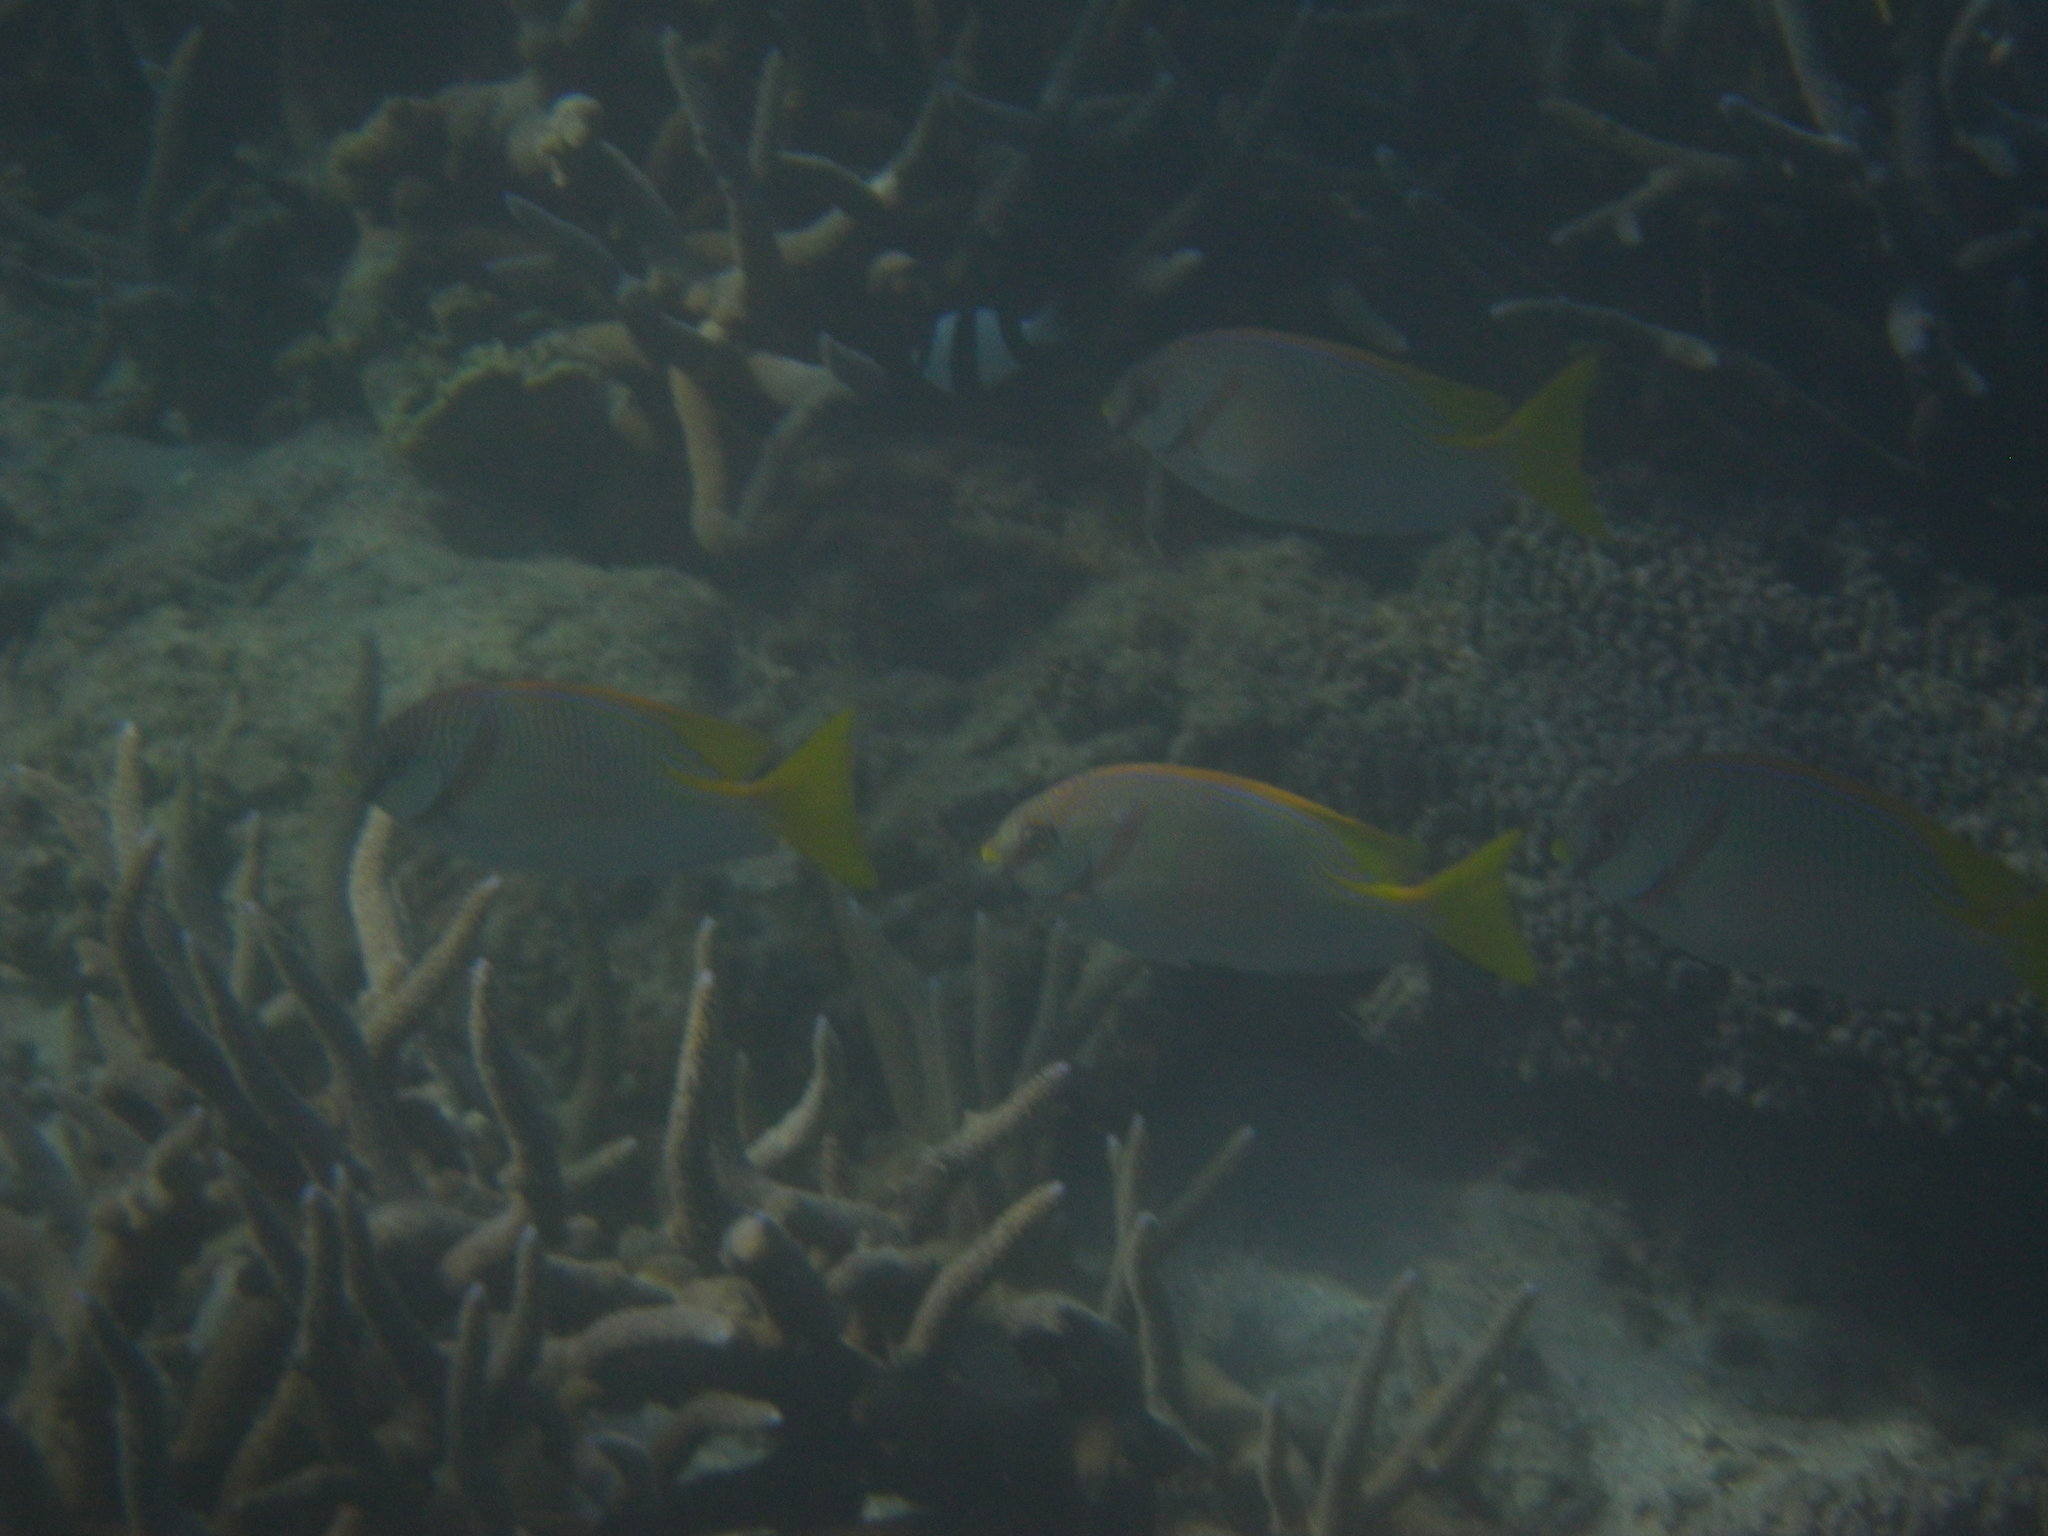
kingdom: Animalia
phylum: Chordata
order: Perciformes
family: Siganidae
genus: Siganus
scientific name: Siganus doliatus
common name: Barred spinefoot
